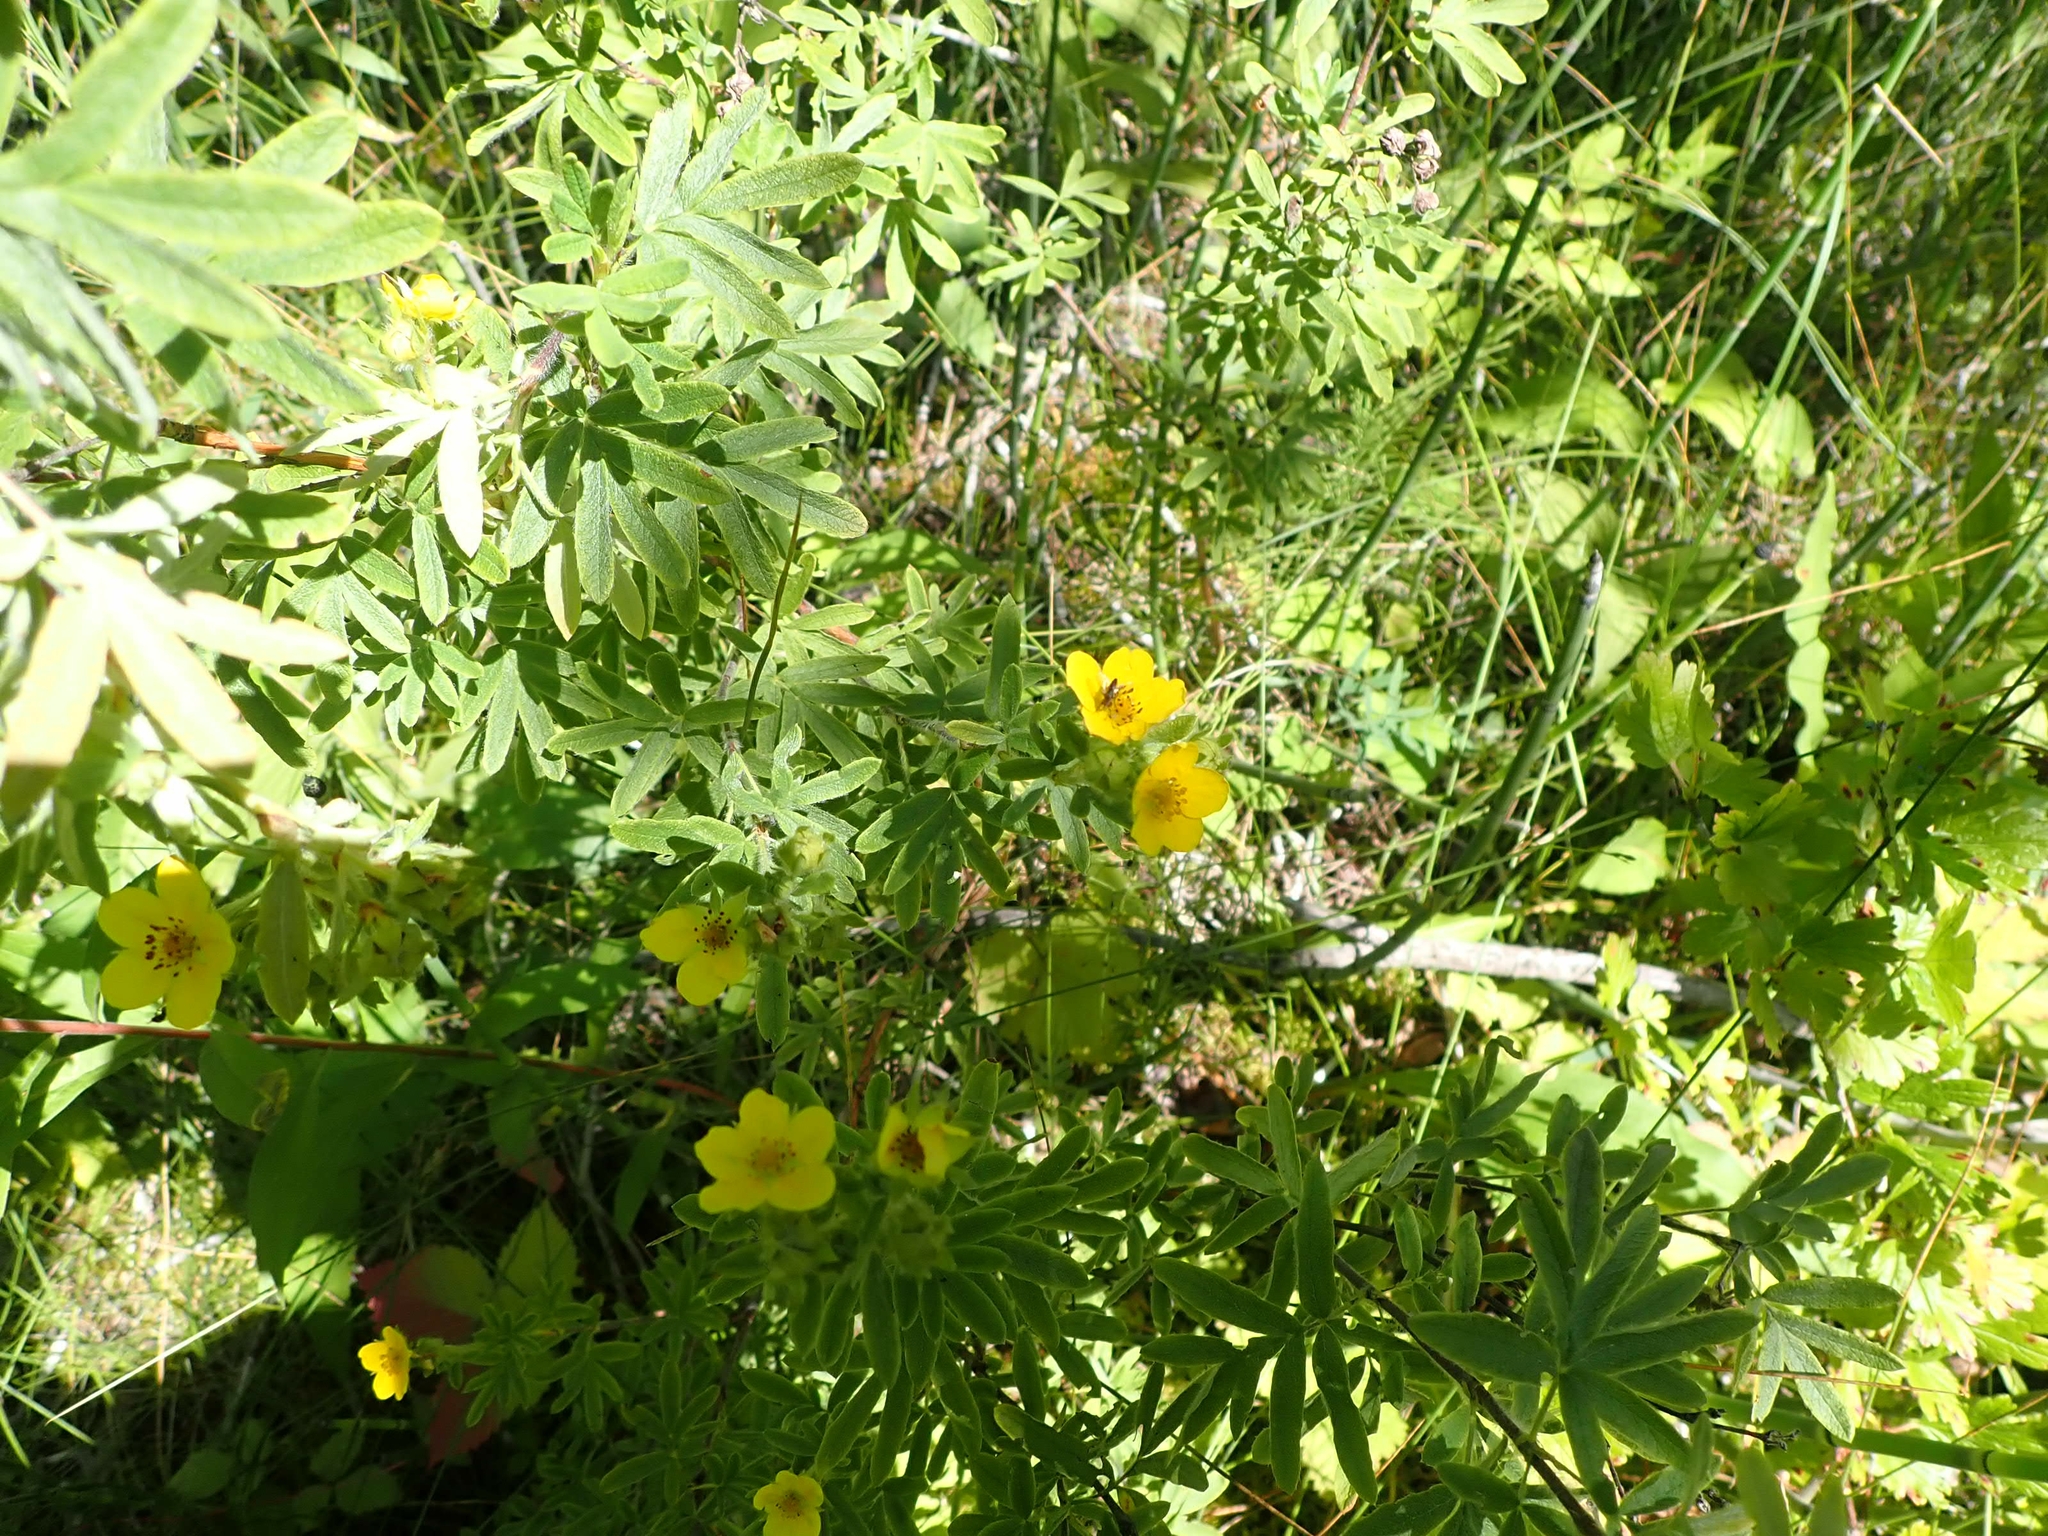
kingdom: Plantae
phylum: Tracheophyta
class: Magnoliopsida
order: Rosales
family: Rosaceae
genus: Dasiphora
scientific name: Dasiphora fruticosa
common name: Shrubby cinquefoil
